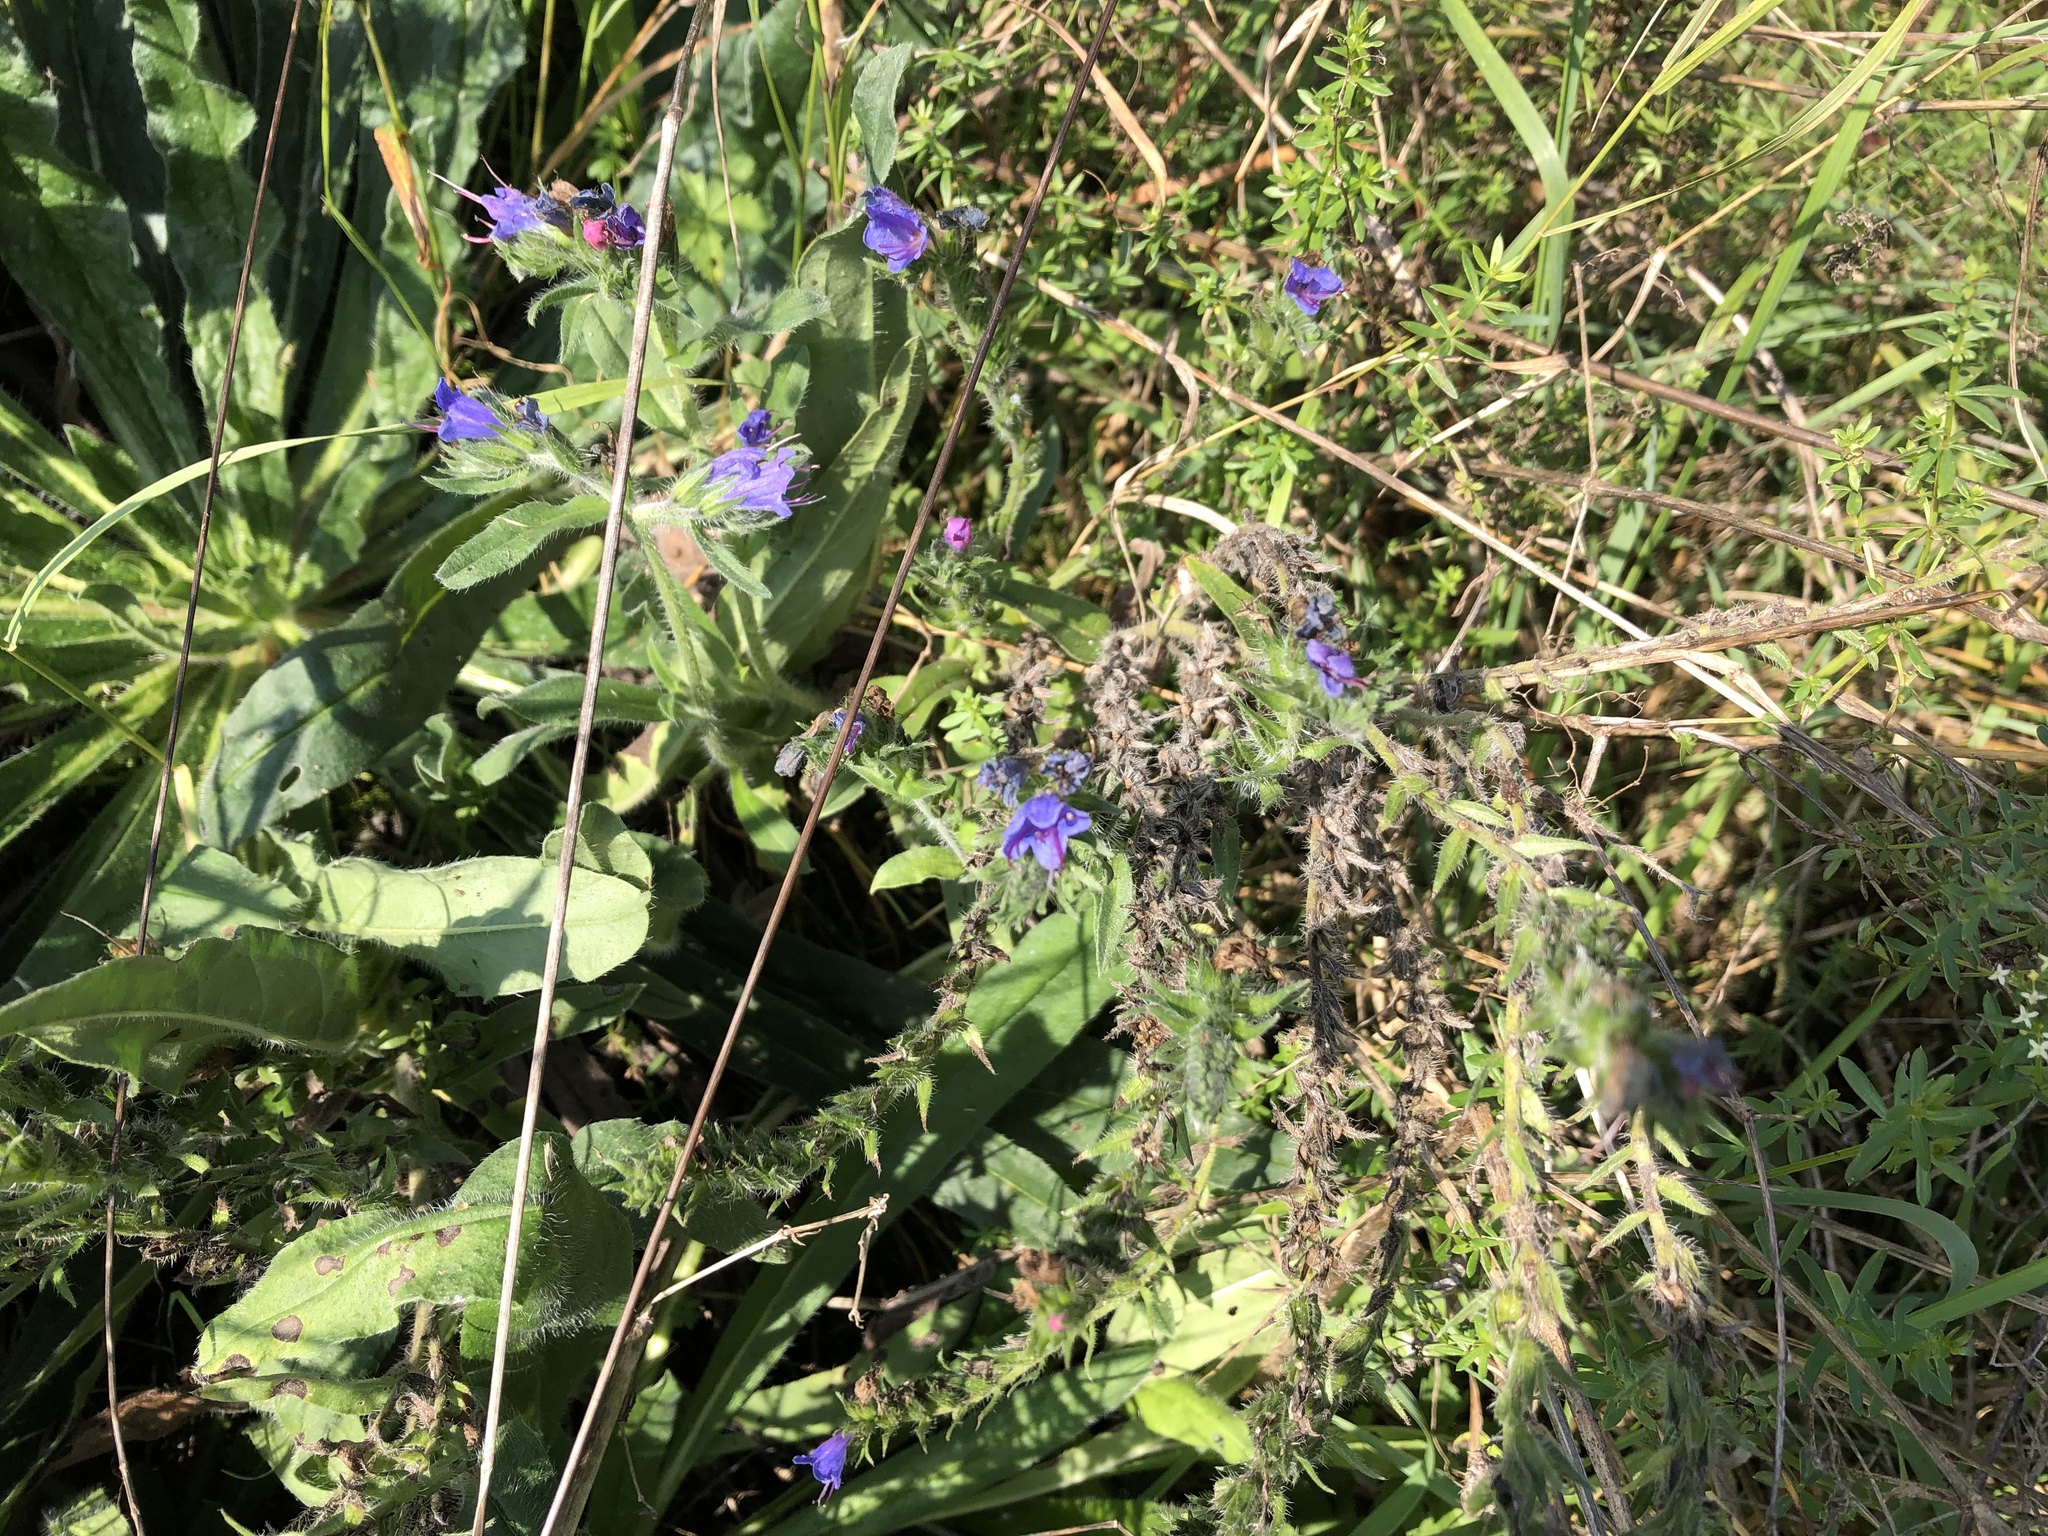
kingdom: Plantae
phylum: Tracheophyta
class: Magnoliopsida
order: Boraginales
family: Boraginaceae
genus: Echium
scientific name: Echium vulgare
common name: Common viper's bugloss
